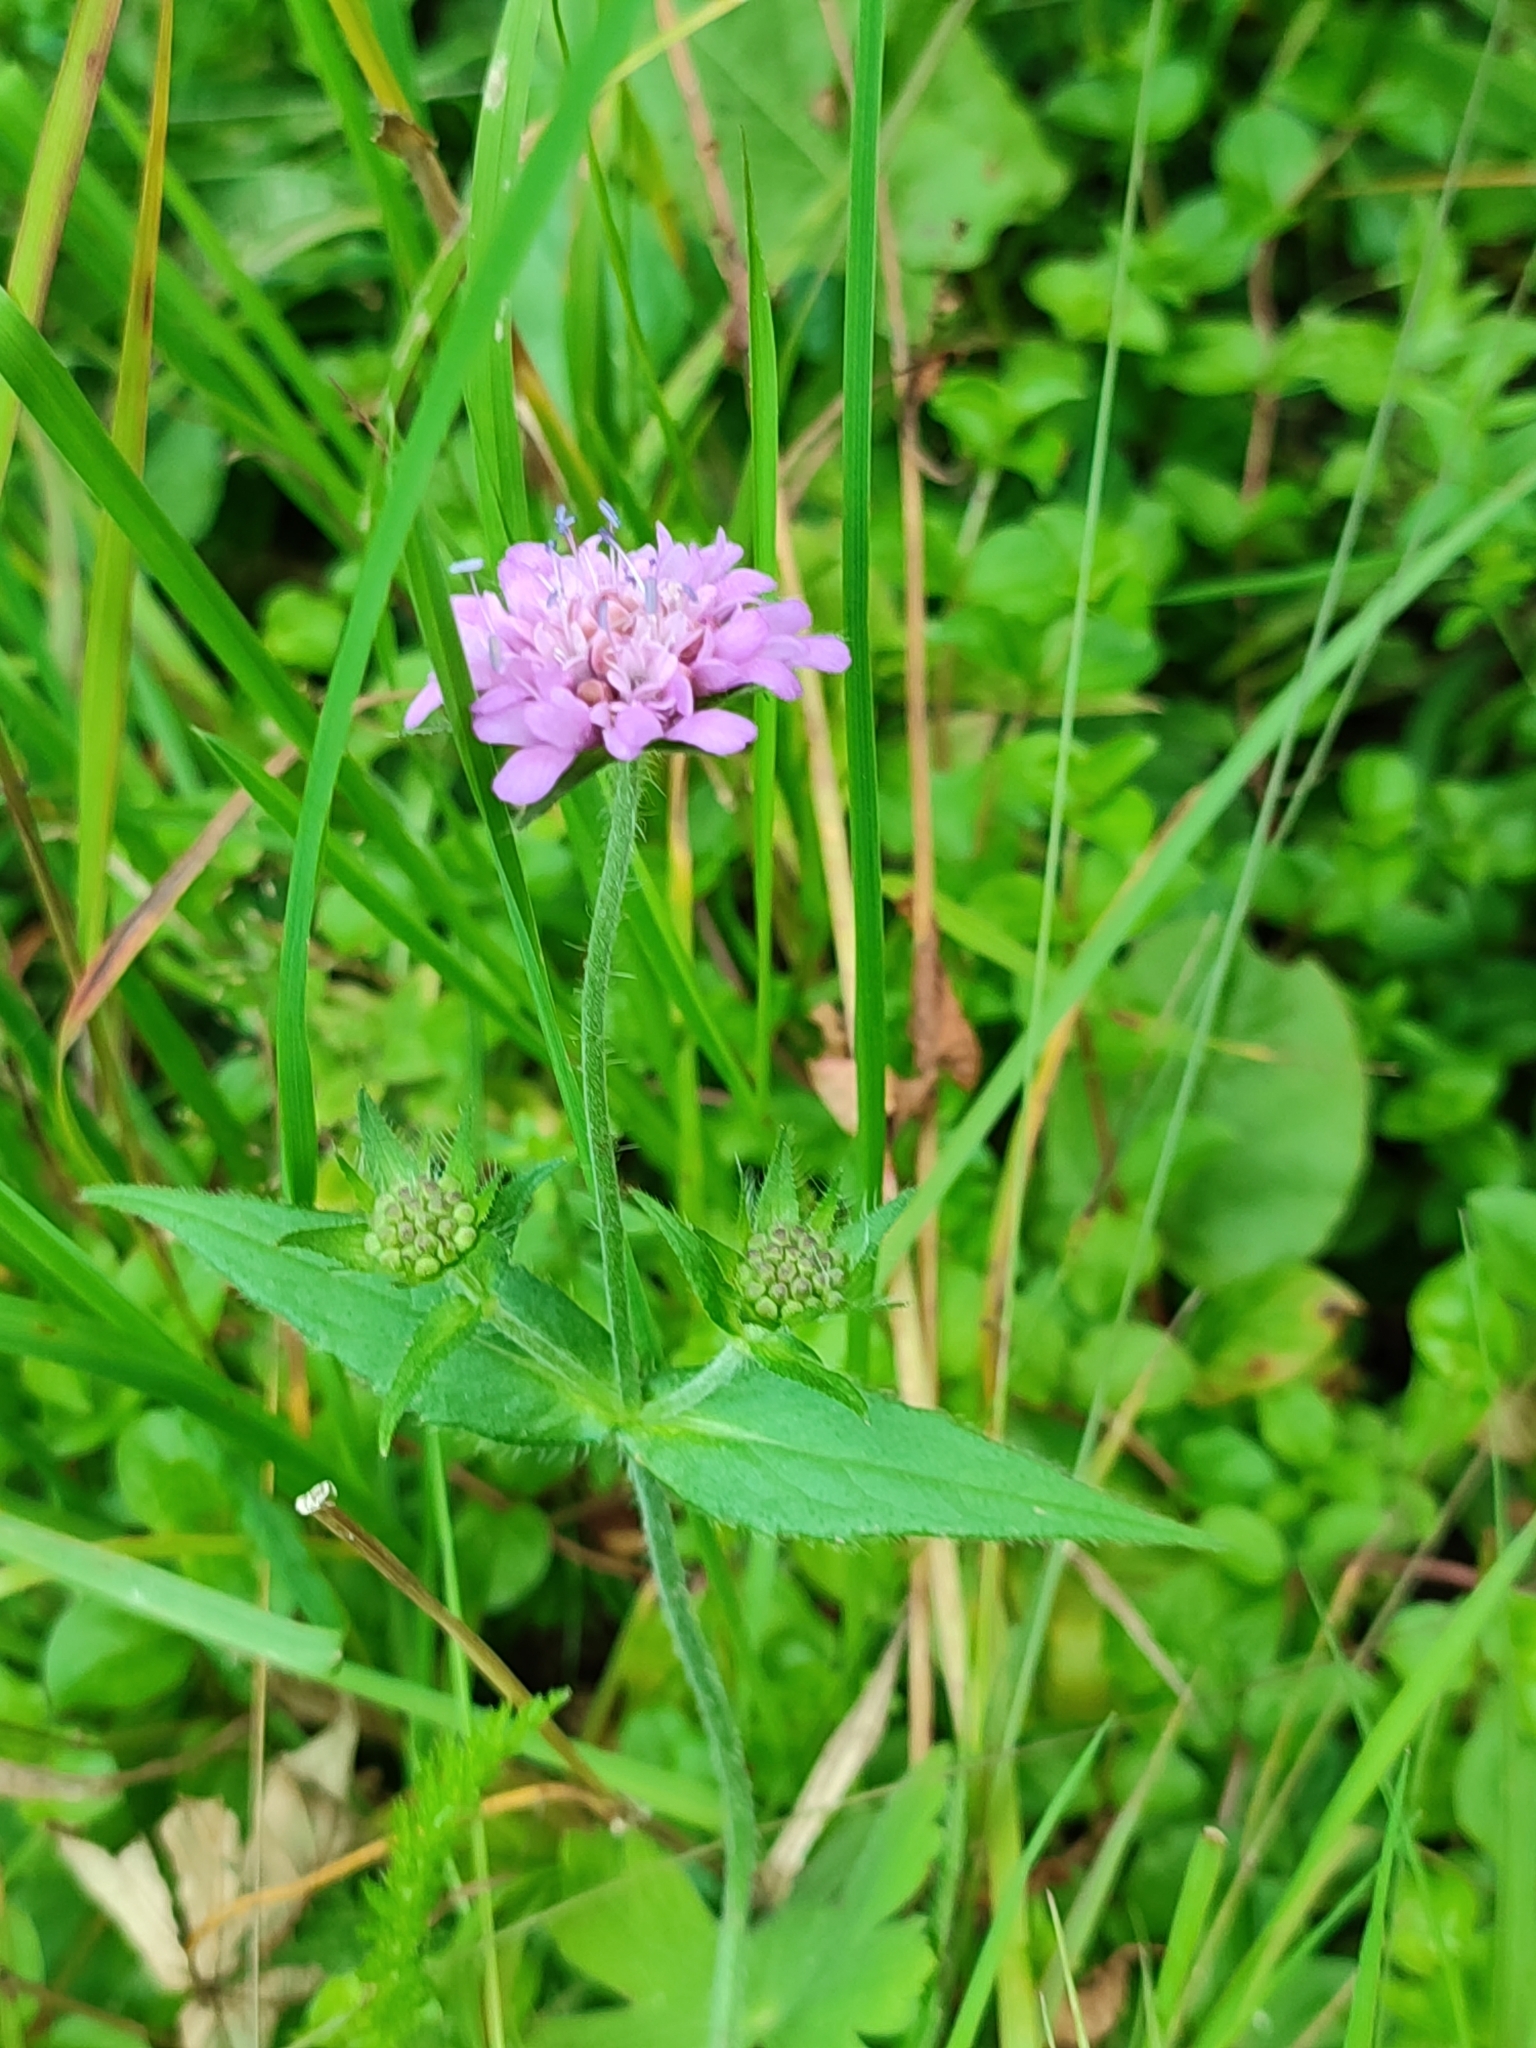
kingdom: Plantae
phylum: Tracheophyta
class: Magnoliopsida
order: Dipsacales
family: Caprifoliaceae
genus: Knautia
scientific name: Knautia dipsacifolia
